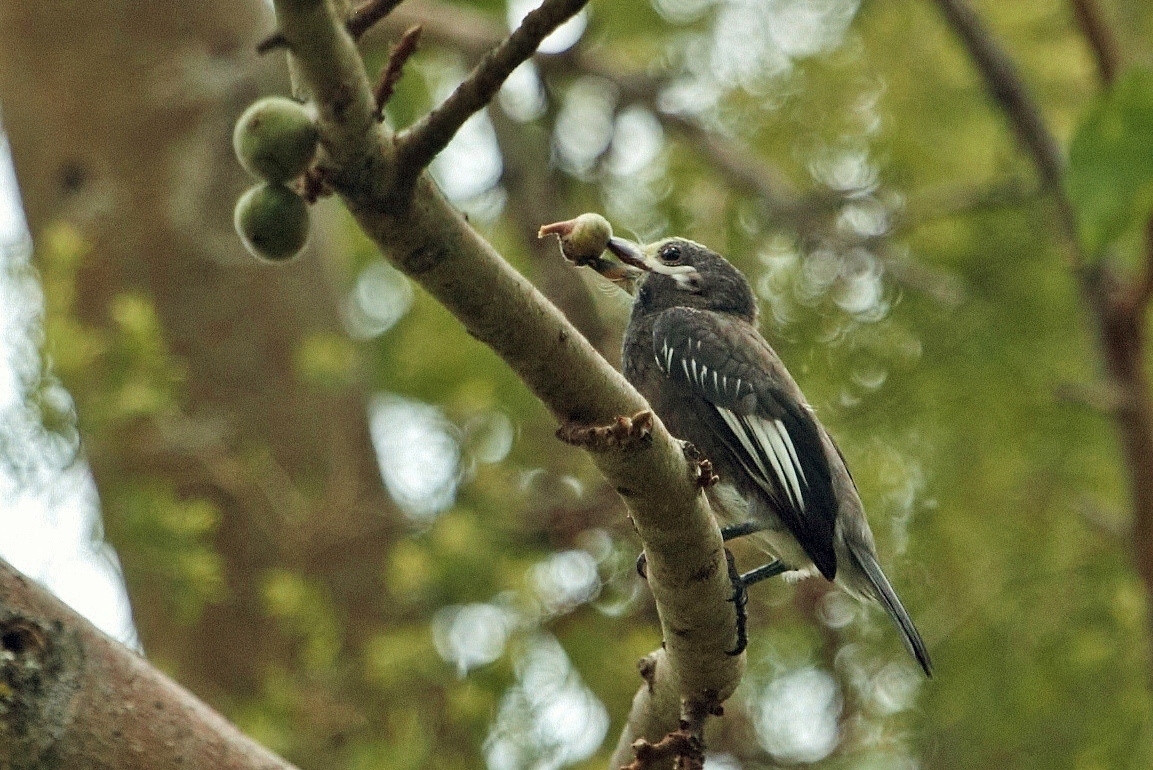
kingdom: Animalia
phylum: Chordata
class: Aves
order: Piciformes
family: Lybiidae
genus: Stactolaema
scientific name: Stactolaema whytii
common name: Whyte's barbet
